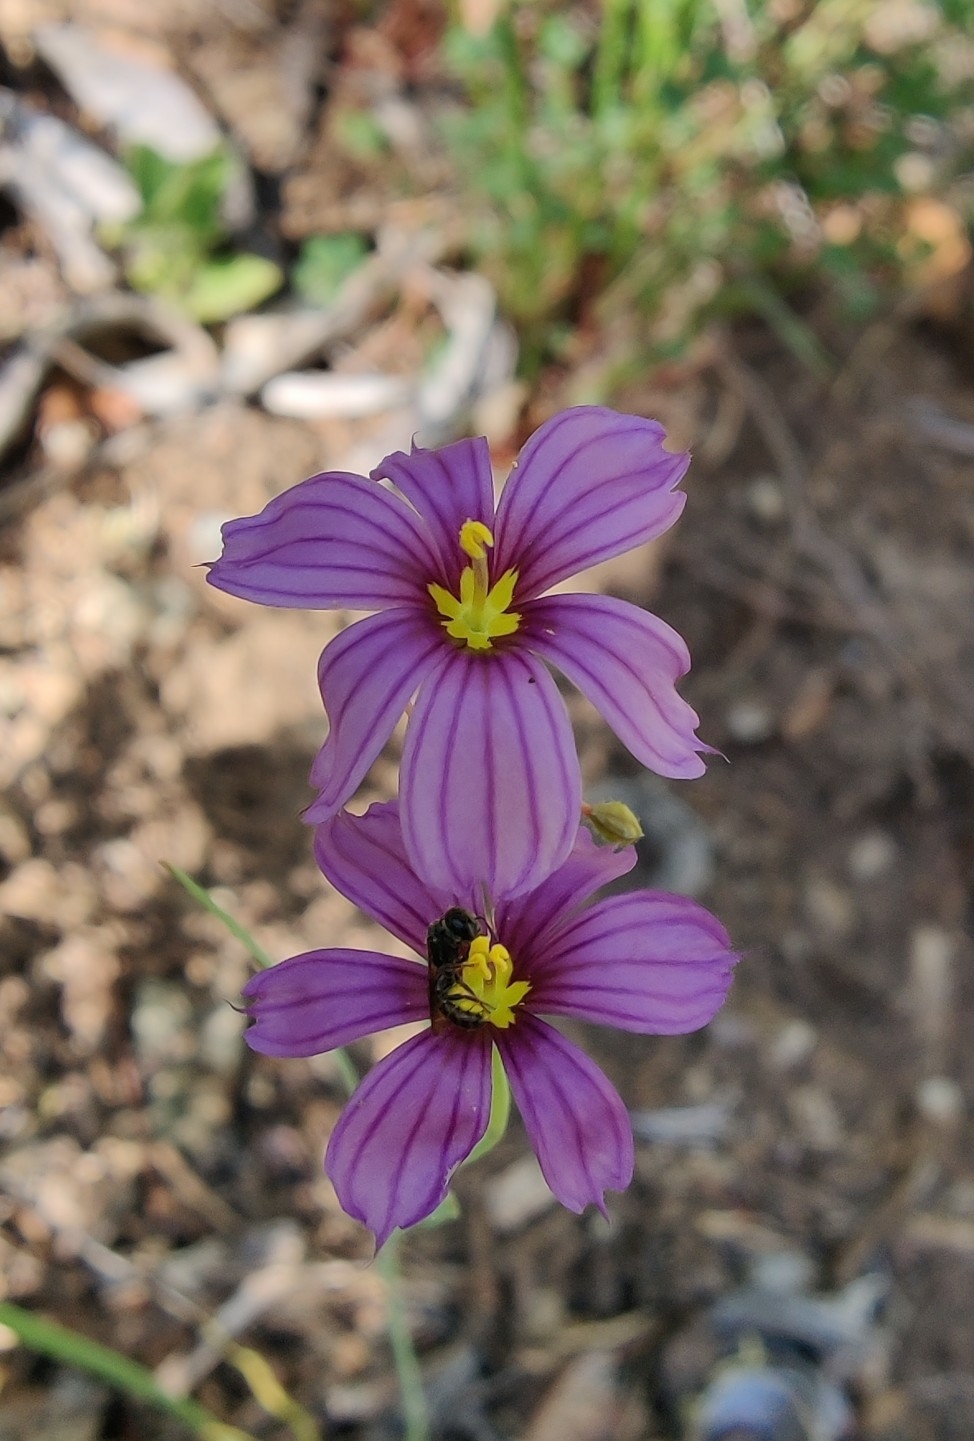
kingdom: Plantae
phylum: Tracheophyta
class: Liliopsida
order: Asparagales
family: Iridaceae
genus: Sisyrinchium
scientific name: Sisyrinchium bellum
